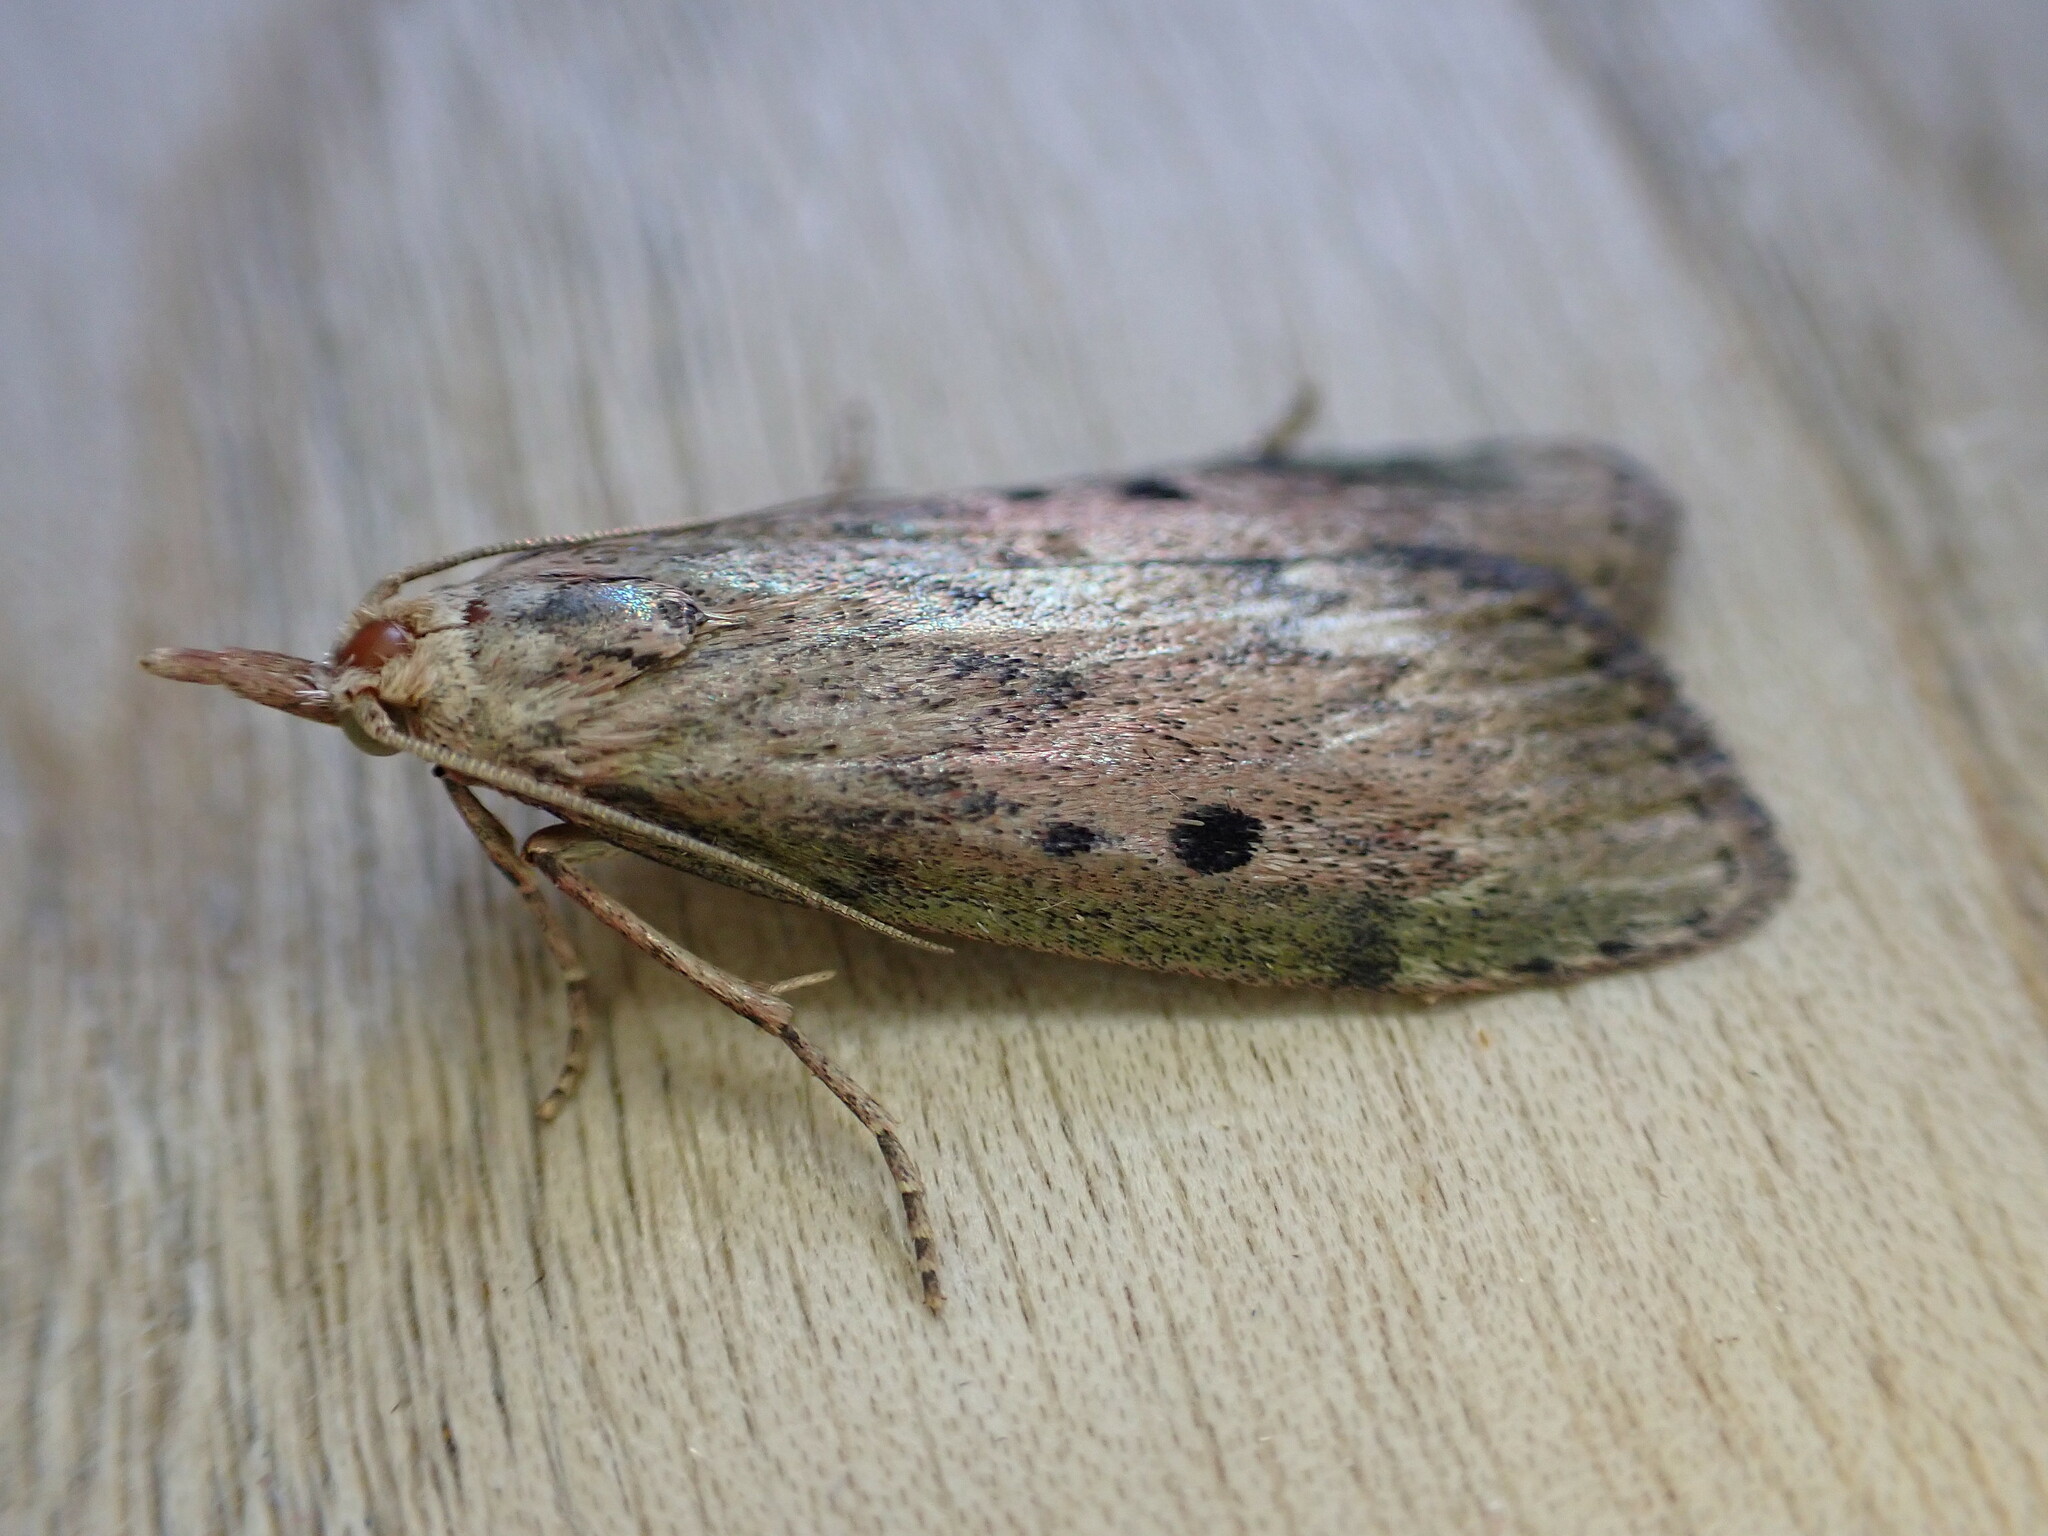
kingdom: Animalia
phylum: Arthropoda
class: Insecta
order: Lepidoptera
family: Pyralidae
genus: Aphomia
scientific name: Aphomia sociella
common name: Bee moth
